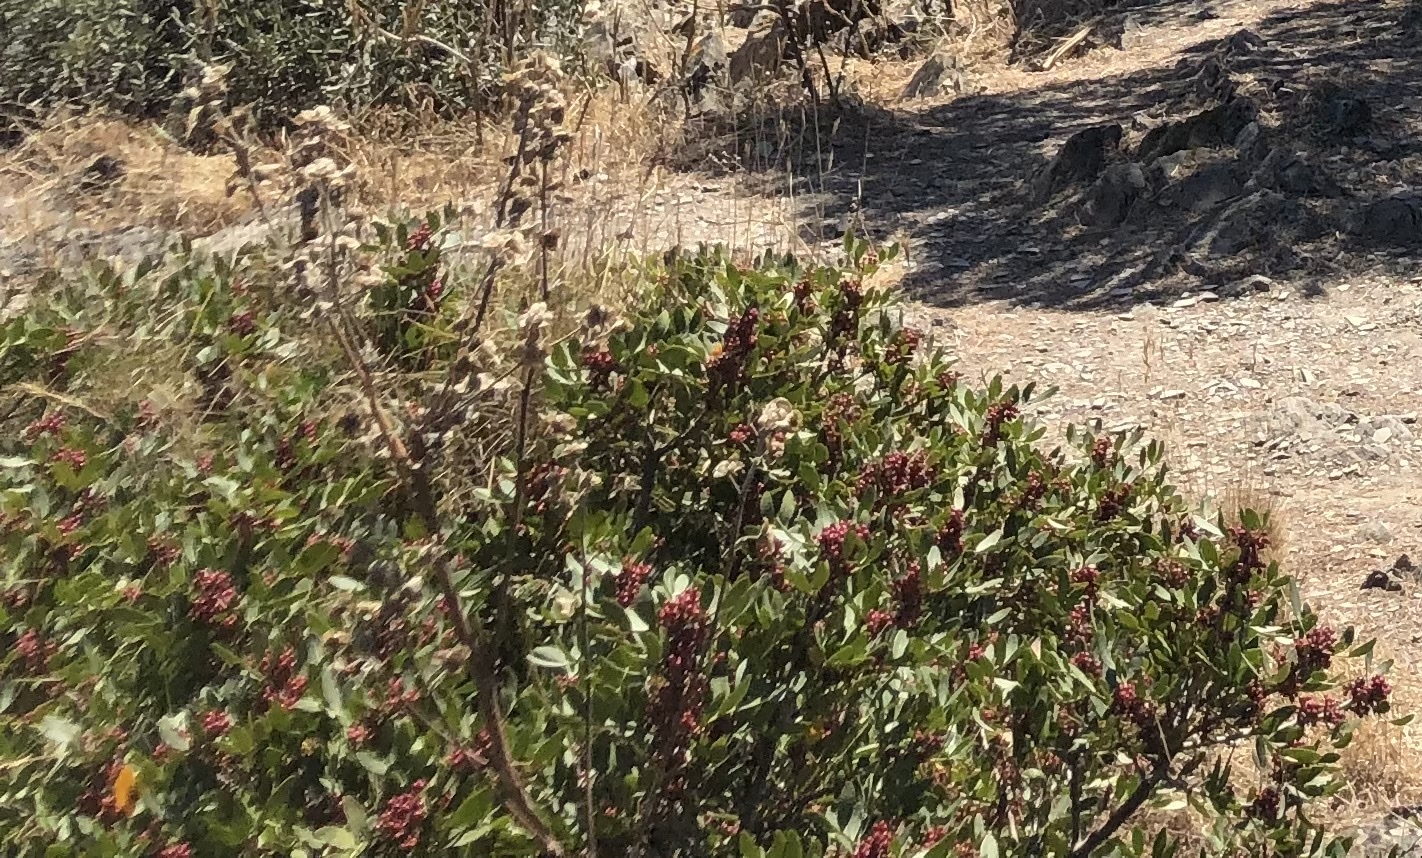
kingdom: Plantae
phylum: Tracheophyta
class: Magnoliopsida
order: Sapindales
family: Anacardiaceae
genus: Pistacia
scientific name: Pistacia lentiscus
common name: Lentisk
